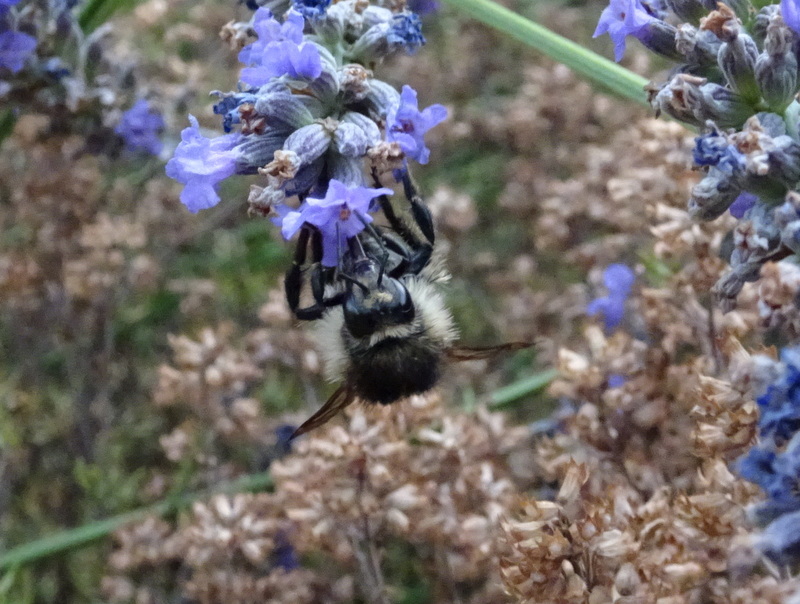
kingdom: Animalia
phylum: Arthropoda
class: Insecta
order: Hymenoptera
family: Apidae
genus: Bombus
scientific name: Bombus humilis
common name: Brown-banded carder-bee
